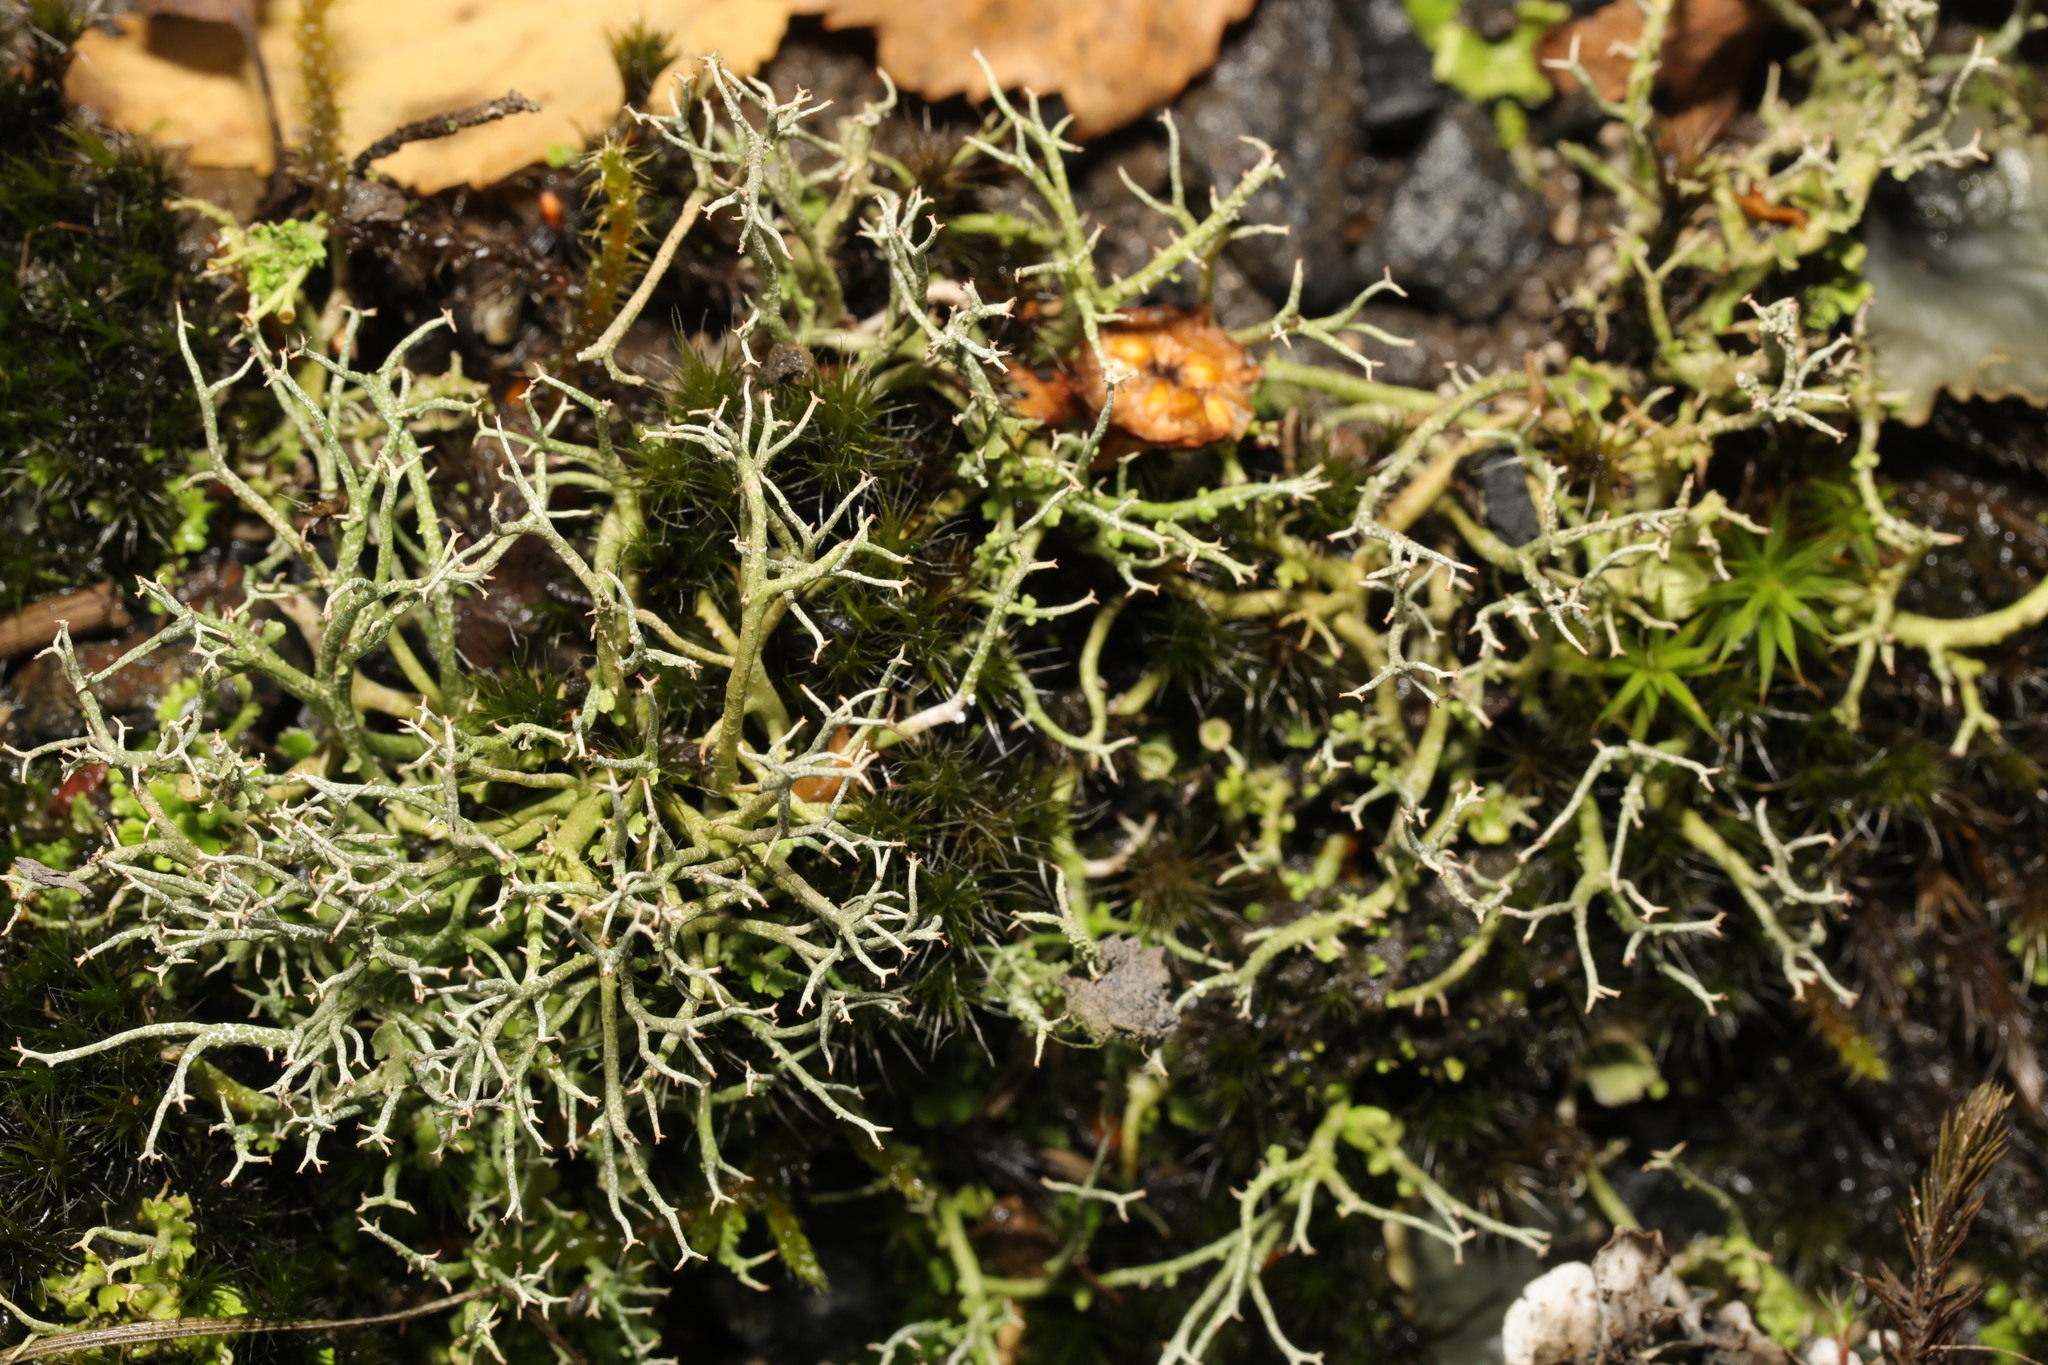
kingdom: Fungi
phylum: Ascomycota
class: Lecanoromycetes
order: Lecanorales
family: Cladoniaceae
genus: Cladonia
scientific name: Cladonia furcata
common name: Many-forked cladonia
